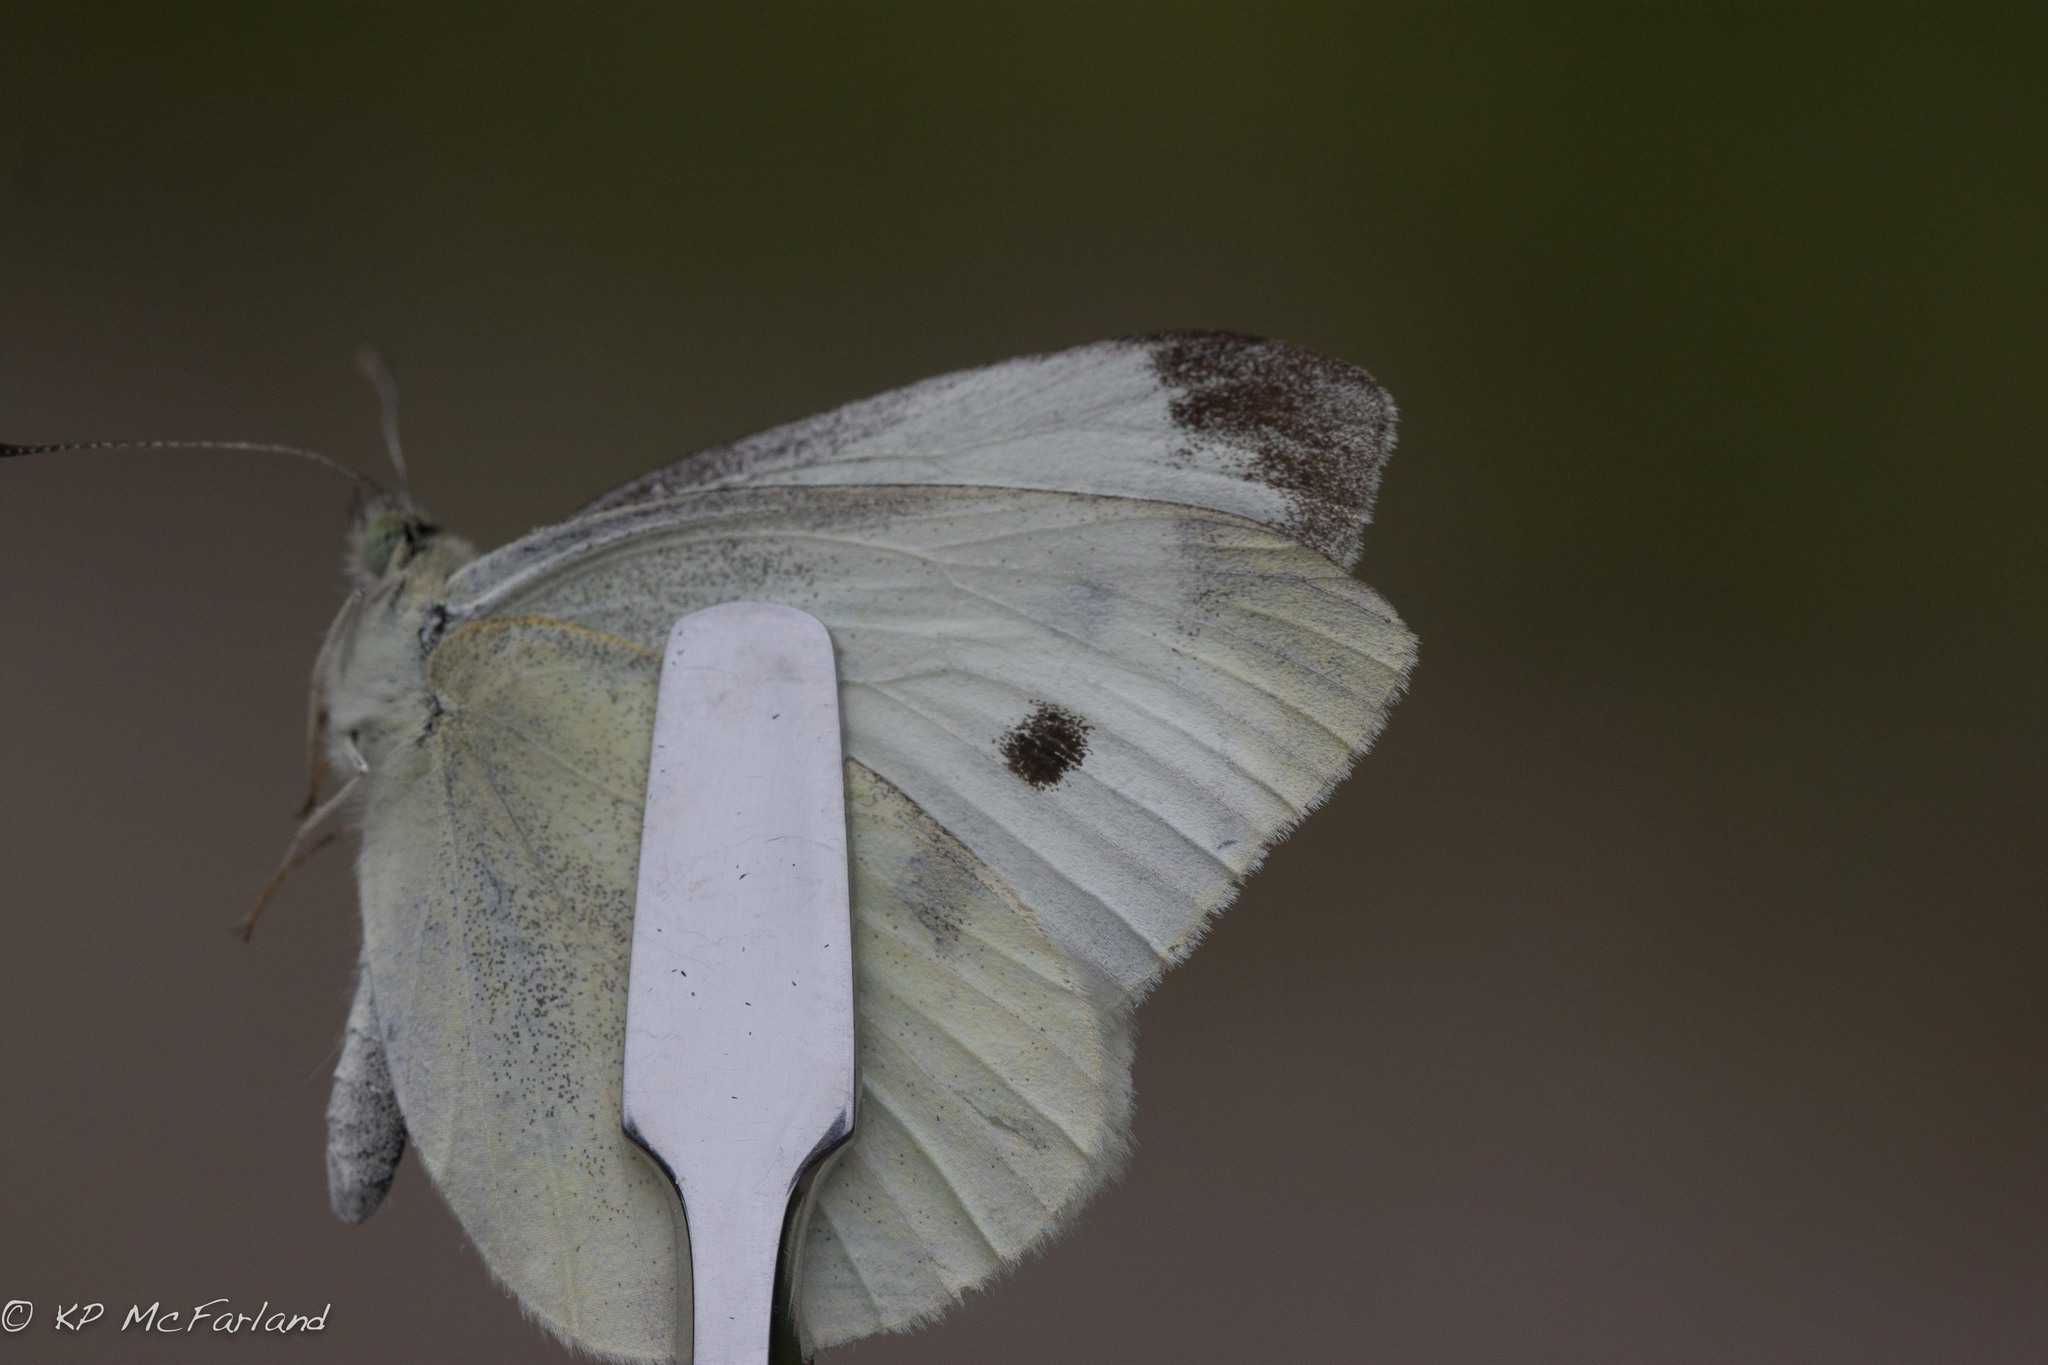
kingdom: Animalia
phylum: Arthropoda
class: Insecta
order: Lepidoptera
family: Pieridae
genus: Pieris
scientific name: Pieris rapae
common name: Small white
